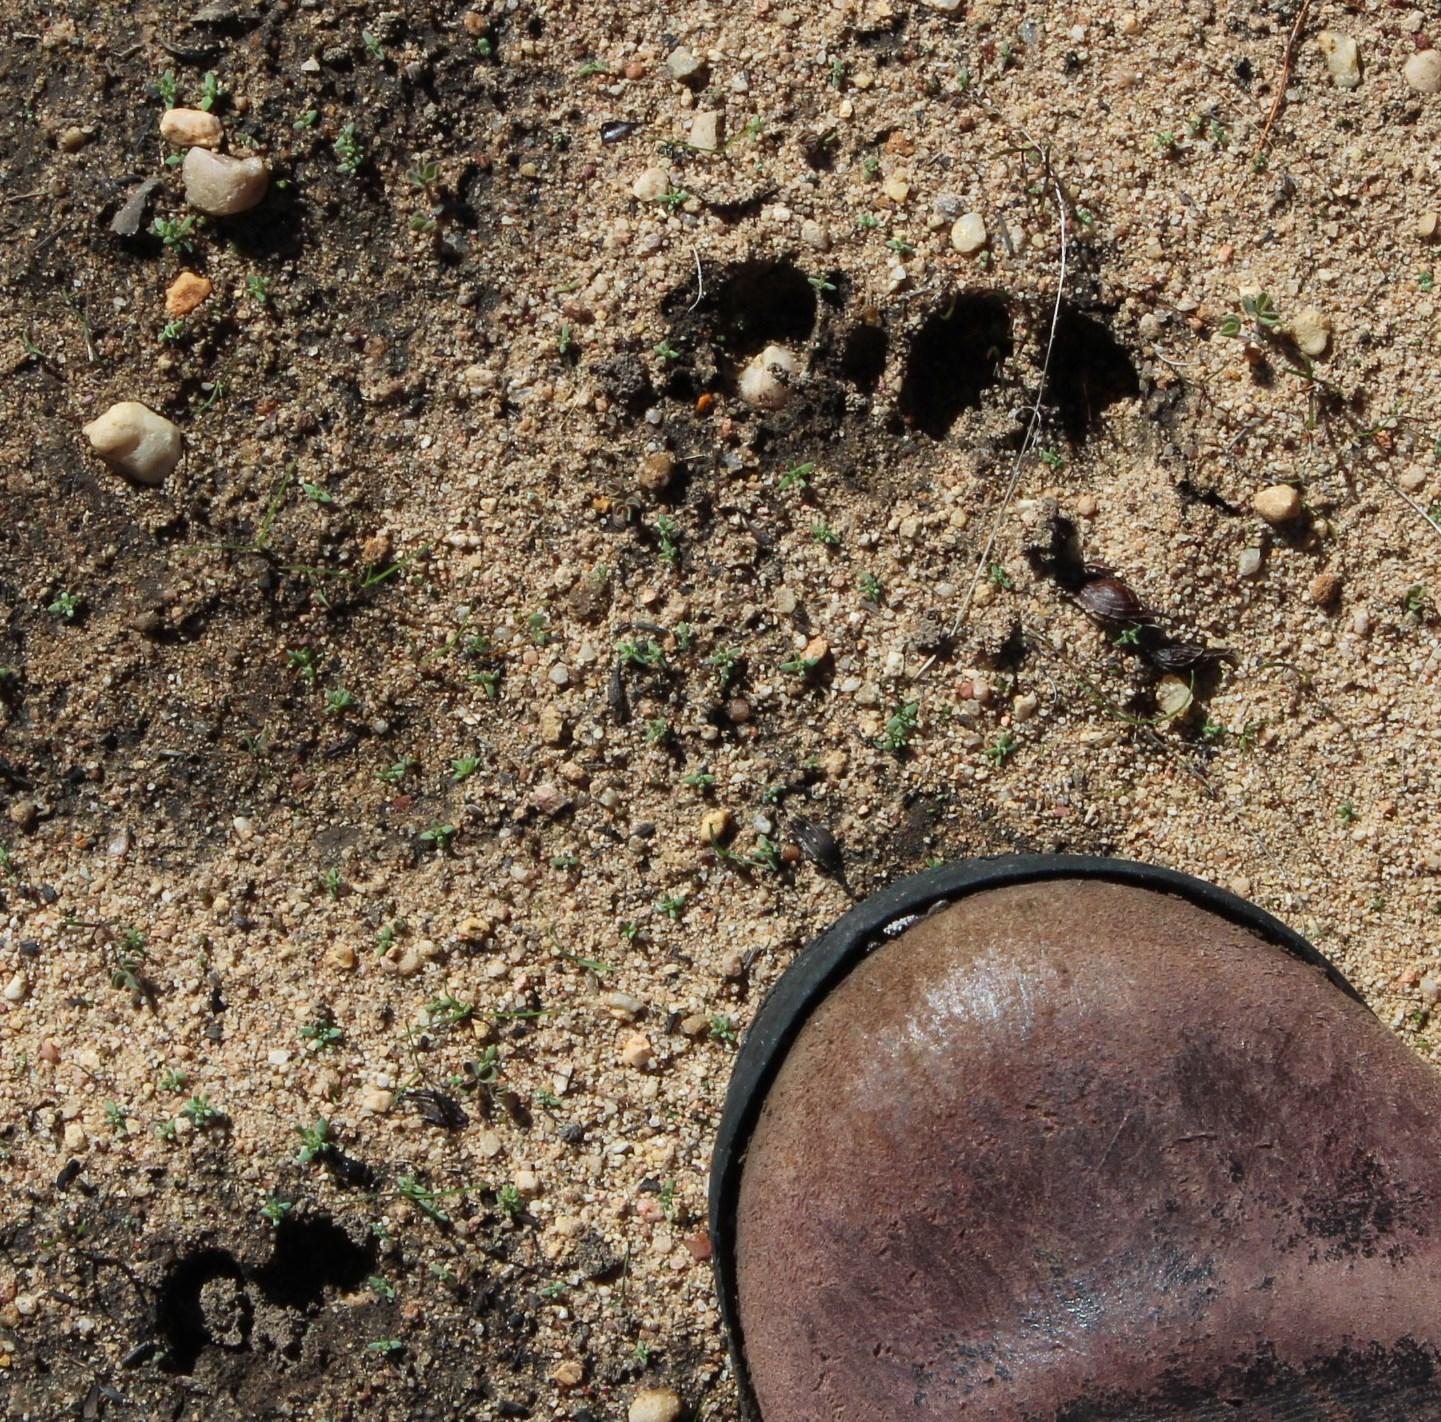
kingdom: Animalia
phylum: Chordata
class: Mammalia
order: Artiodactyla
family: Bovidae
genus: Oreotragus
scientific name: Oreotragus oreotragus
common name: Klipspringer
